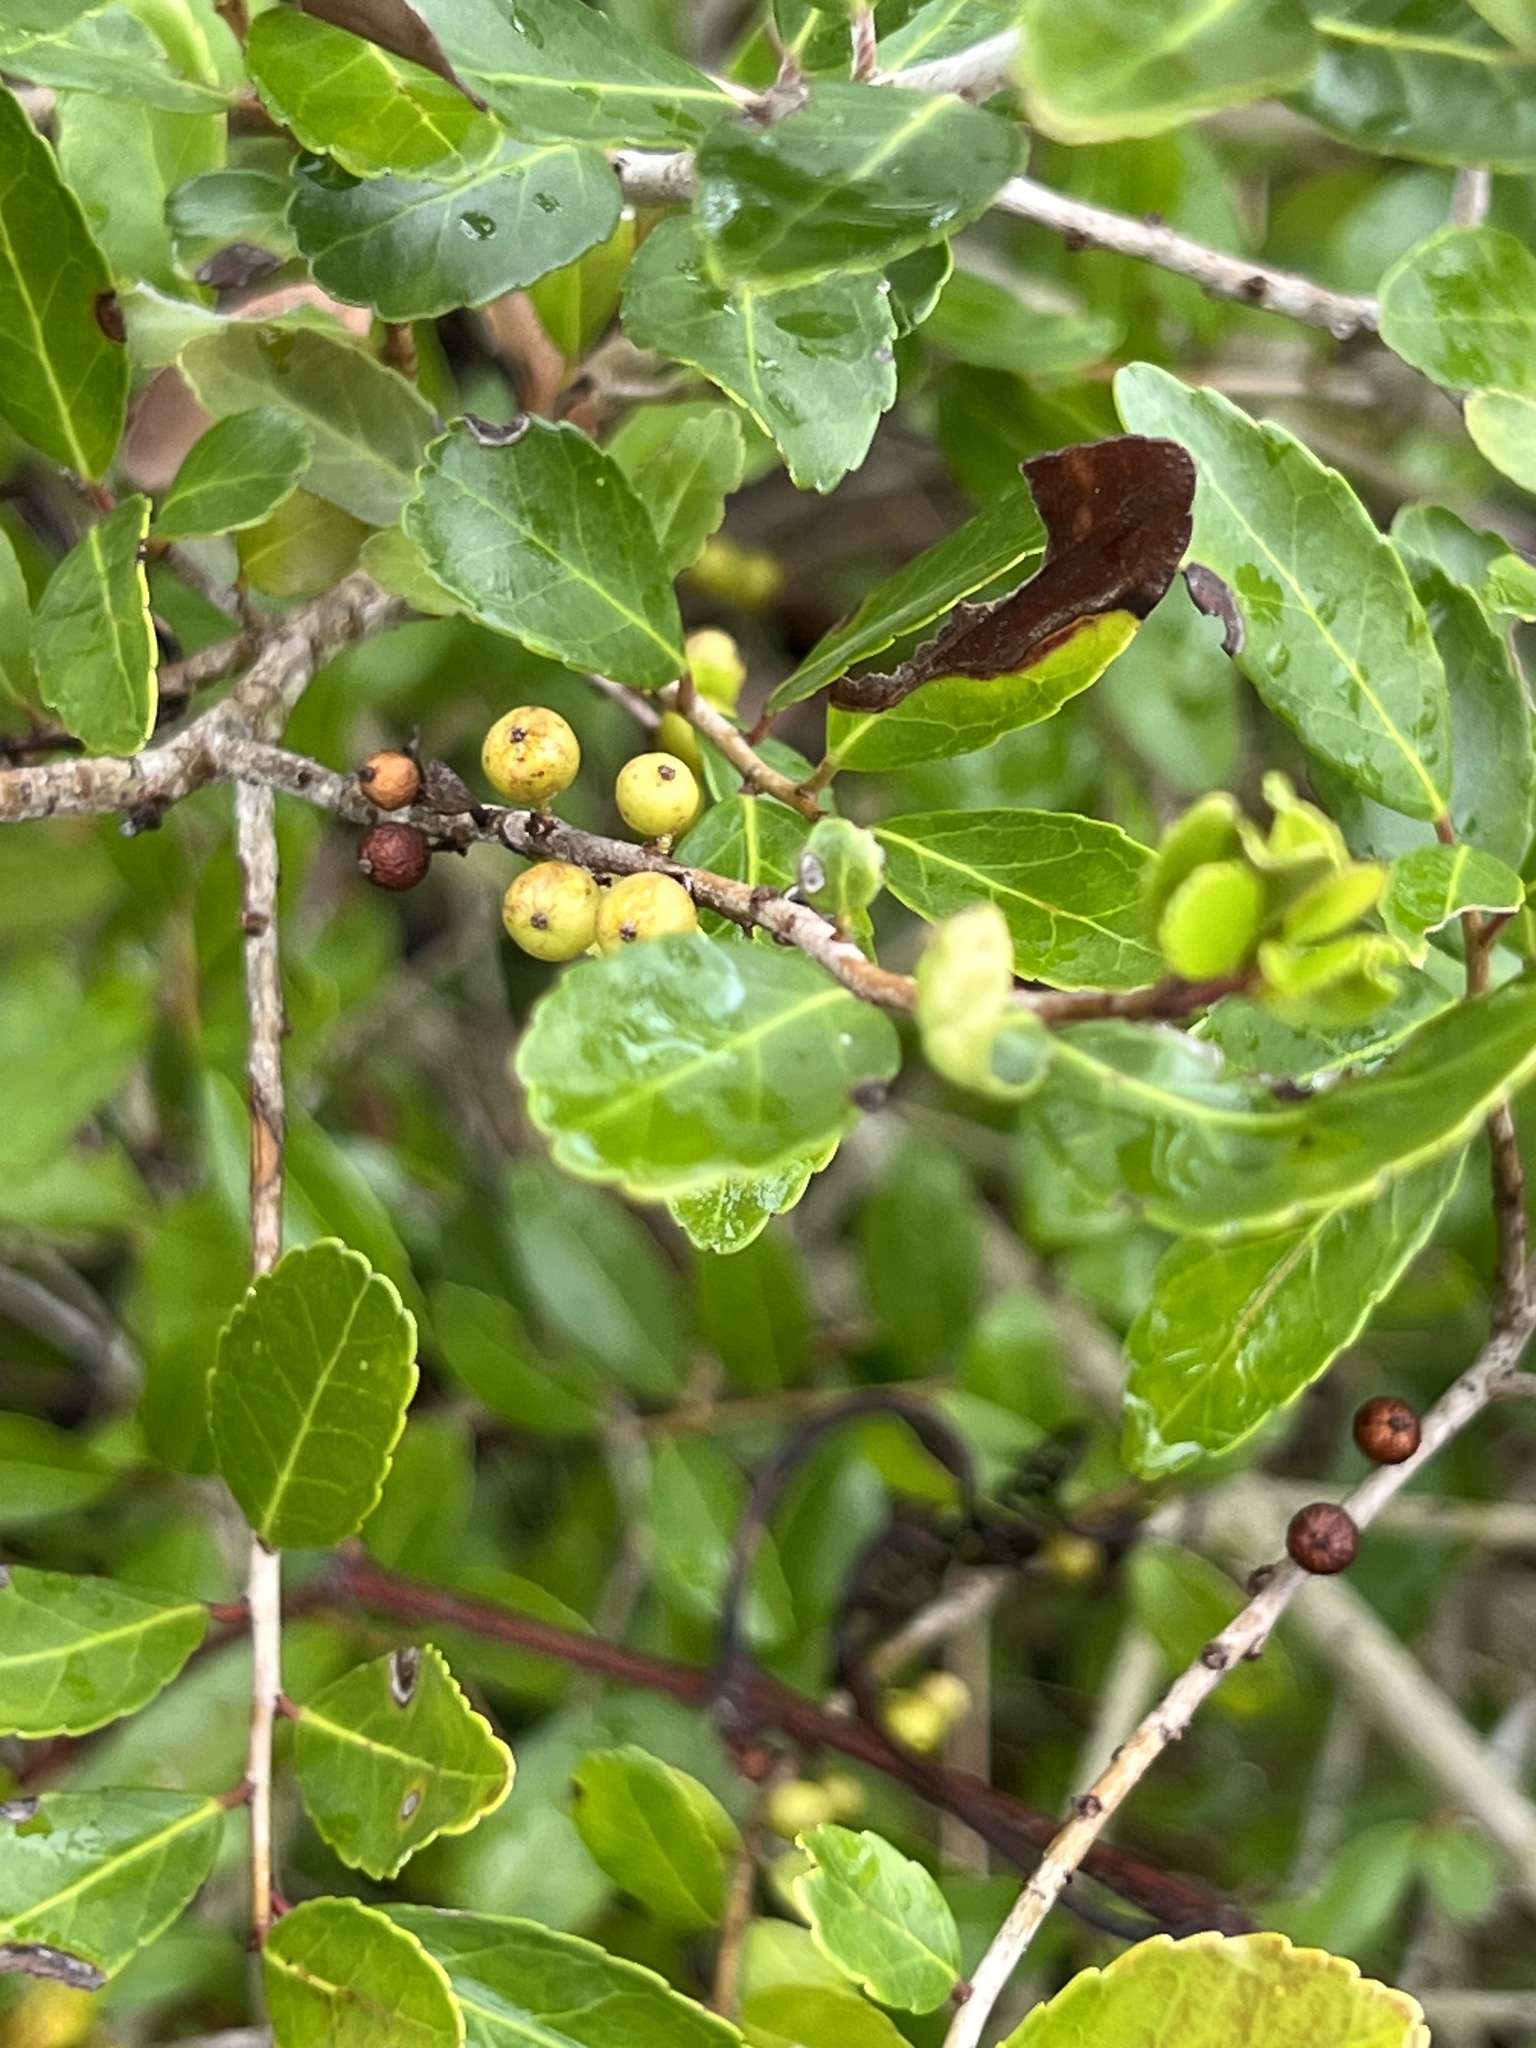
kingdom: Plantae
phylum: Tracheophyta
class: Magnoliopsida
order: Aquifoliales
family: Aquifoliaceae
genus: Ilex
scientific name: Ilex vomitoria
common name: Yaupon holly
